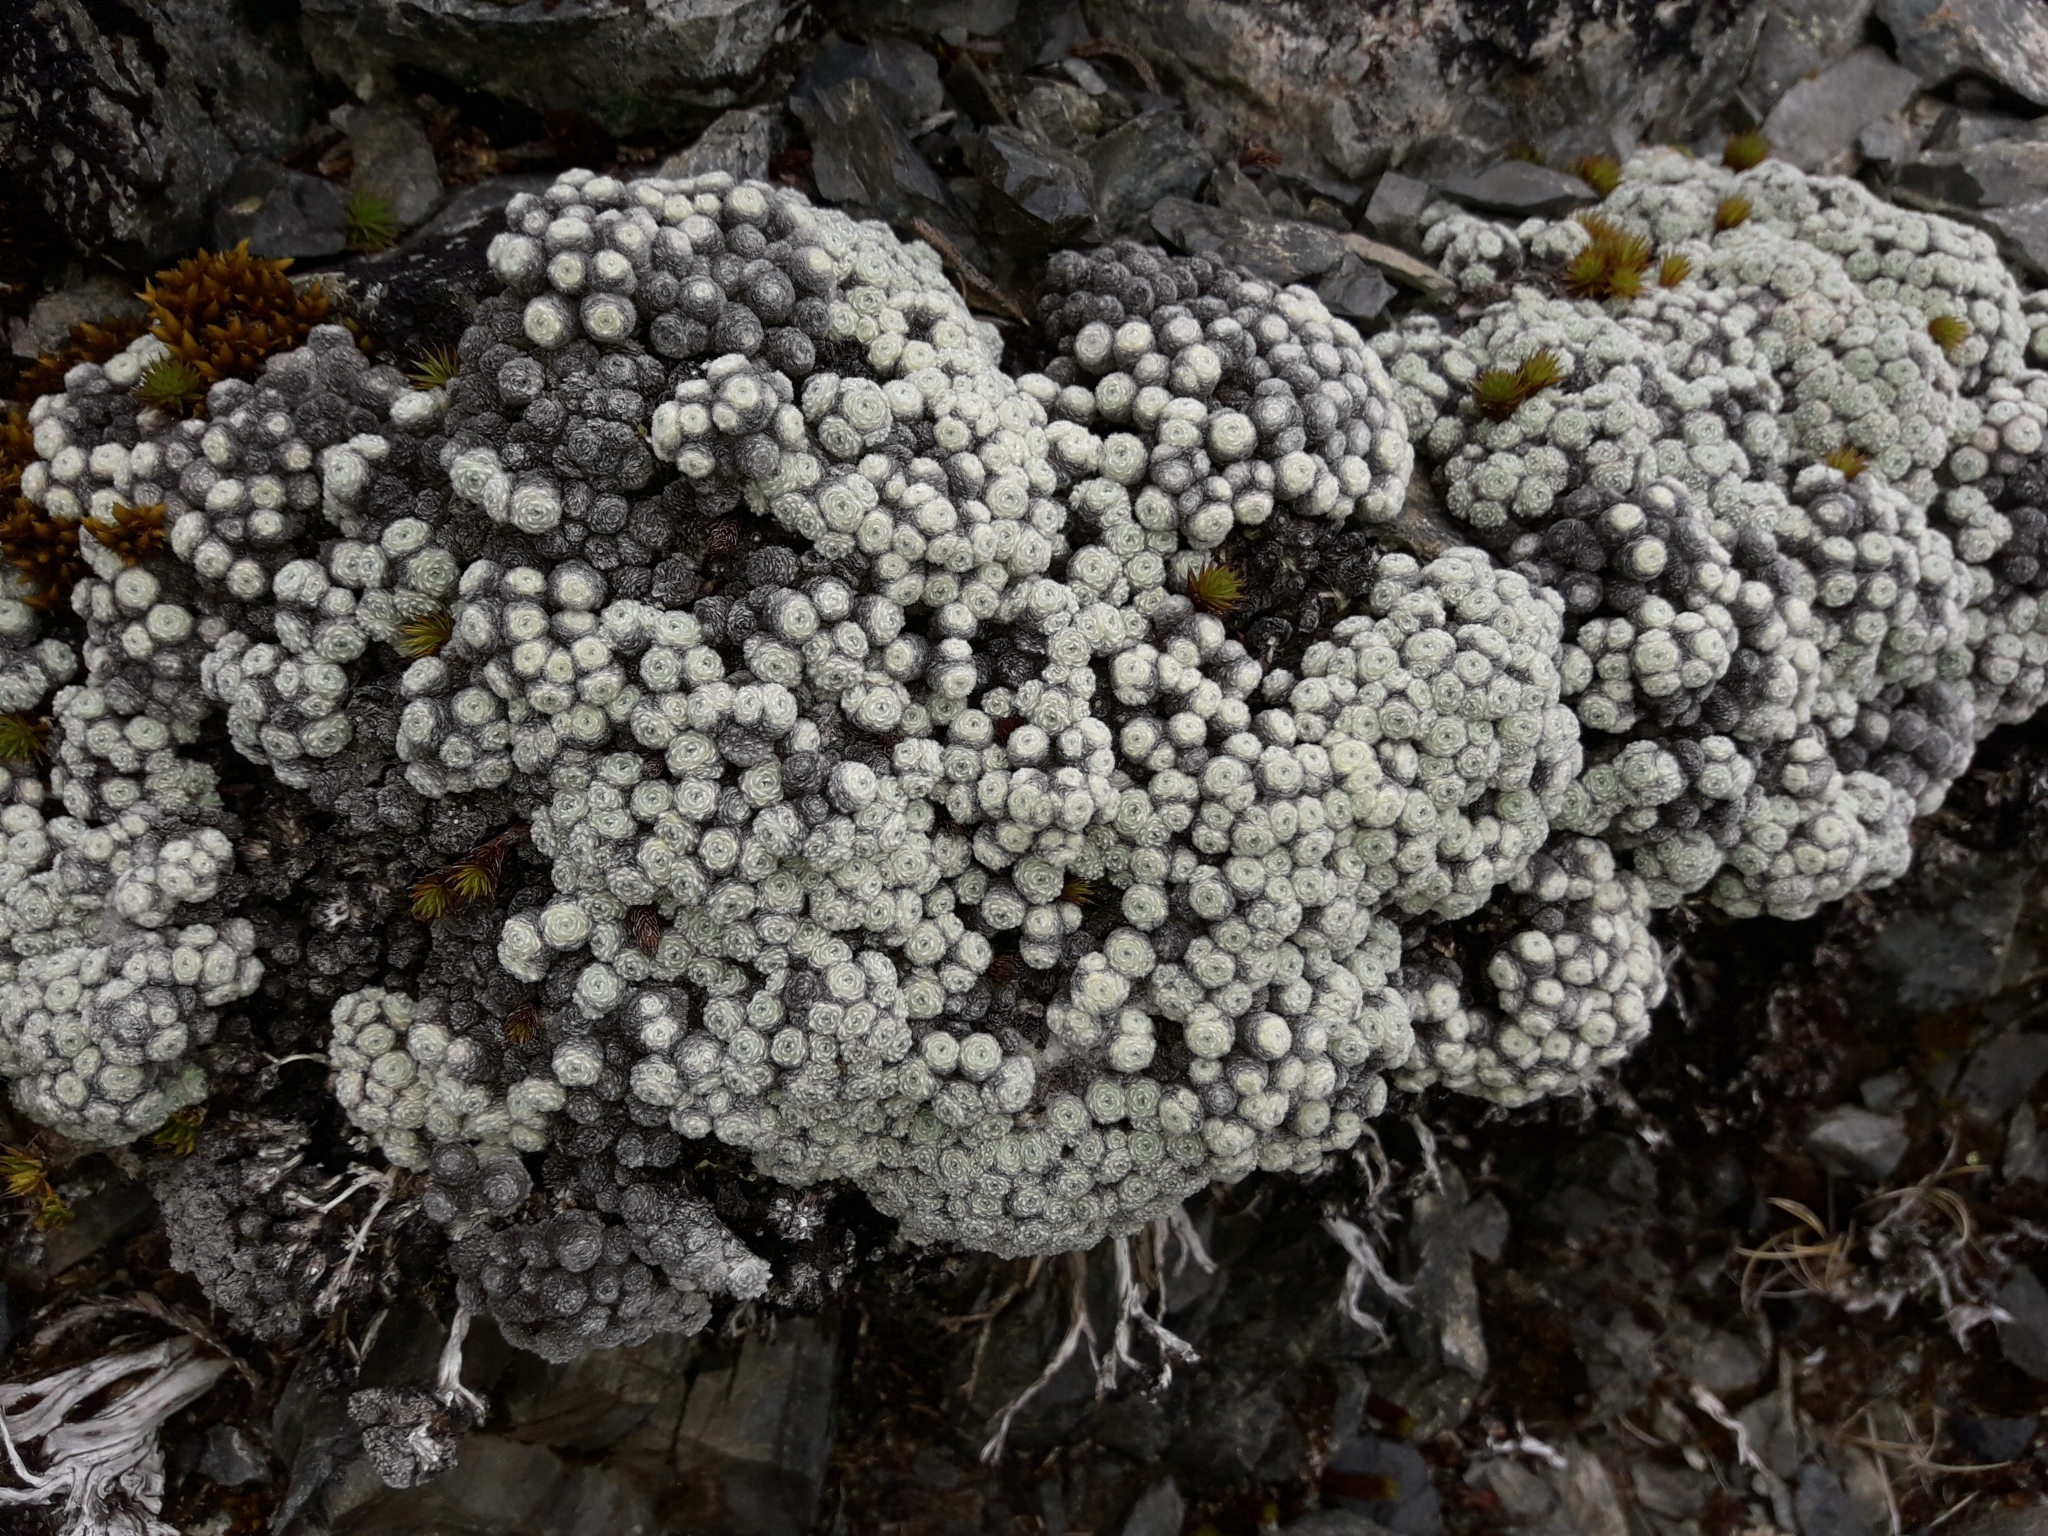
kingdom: Plantae
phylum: Tracheophyta
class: Magnoliopsida
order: Asterales
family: Asteraceae
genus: Raoulia
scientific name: Raoulia mammillaris
